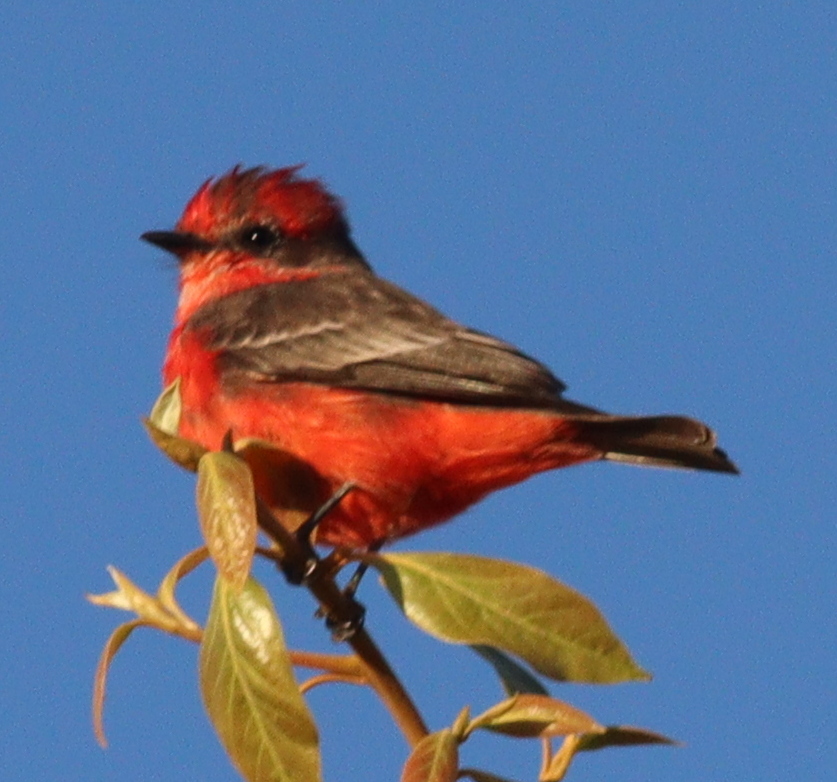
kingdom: Animalia
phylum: Chordata
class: Aves
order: Passeriformes
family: Tyrannidae
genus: Pyrocephalus
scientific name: Pyrocephalus rubinus
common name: Vermilion flycatcher
